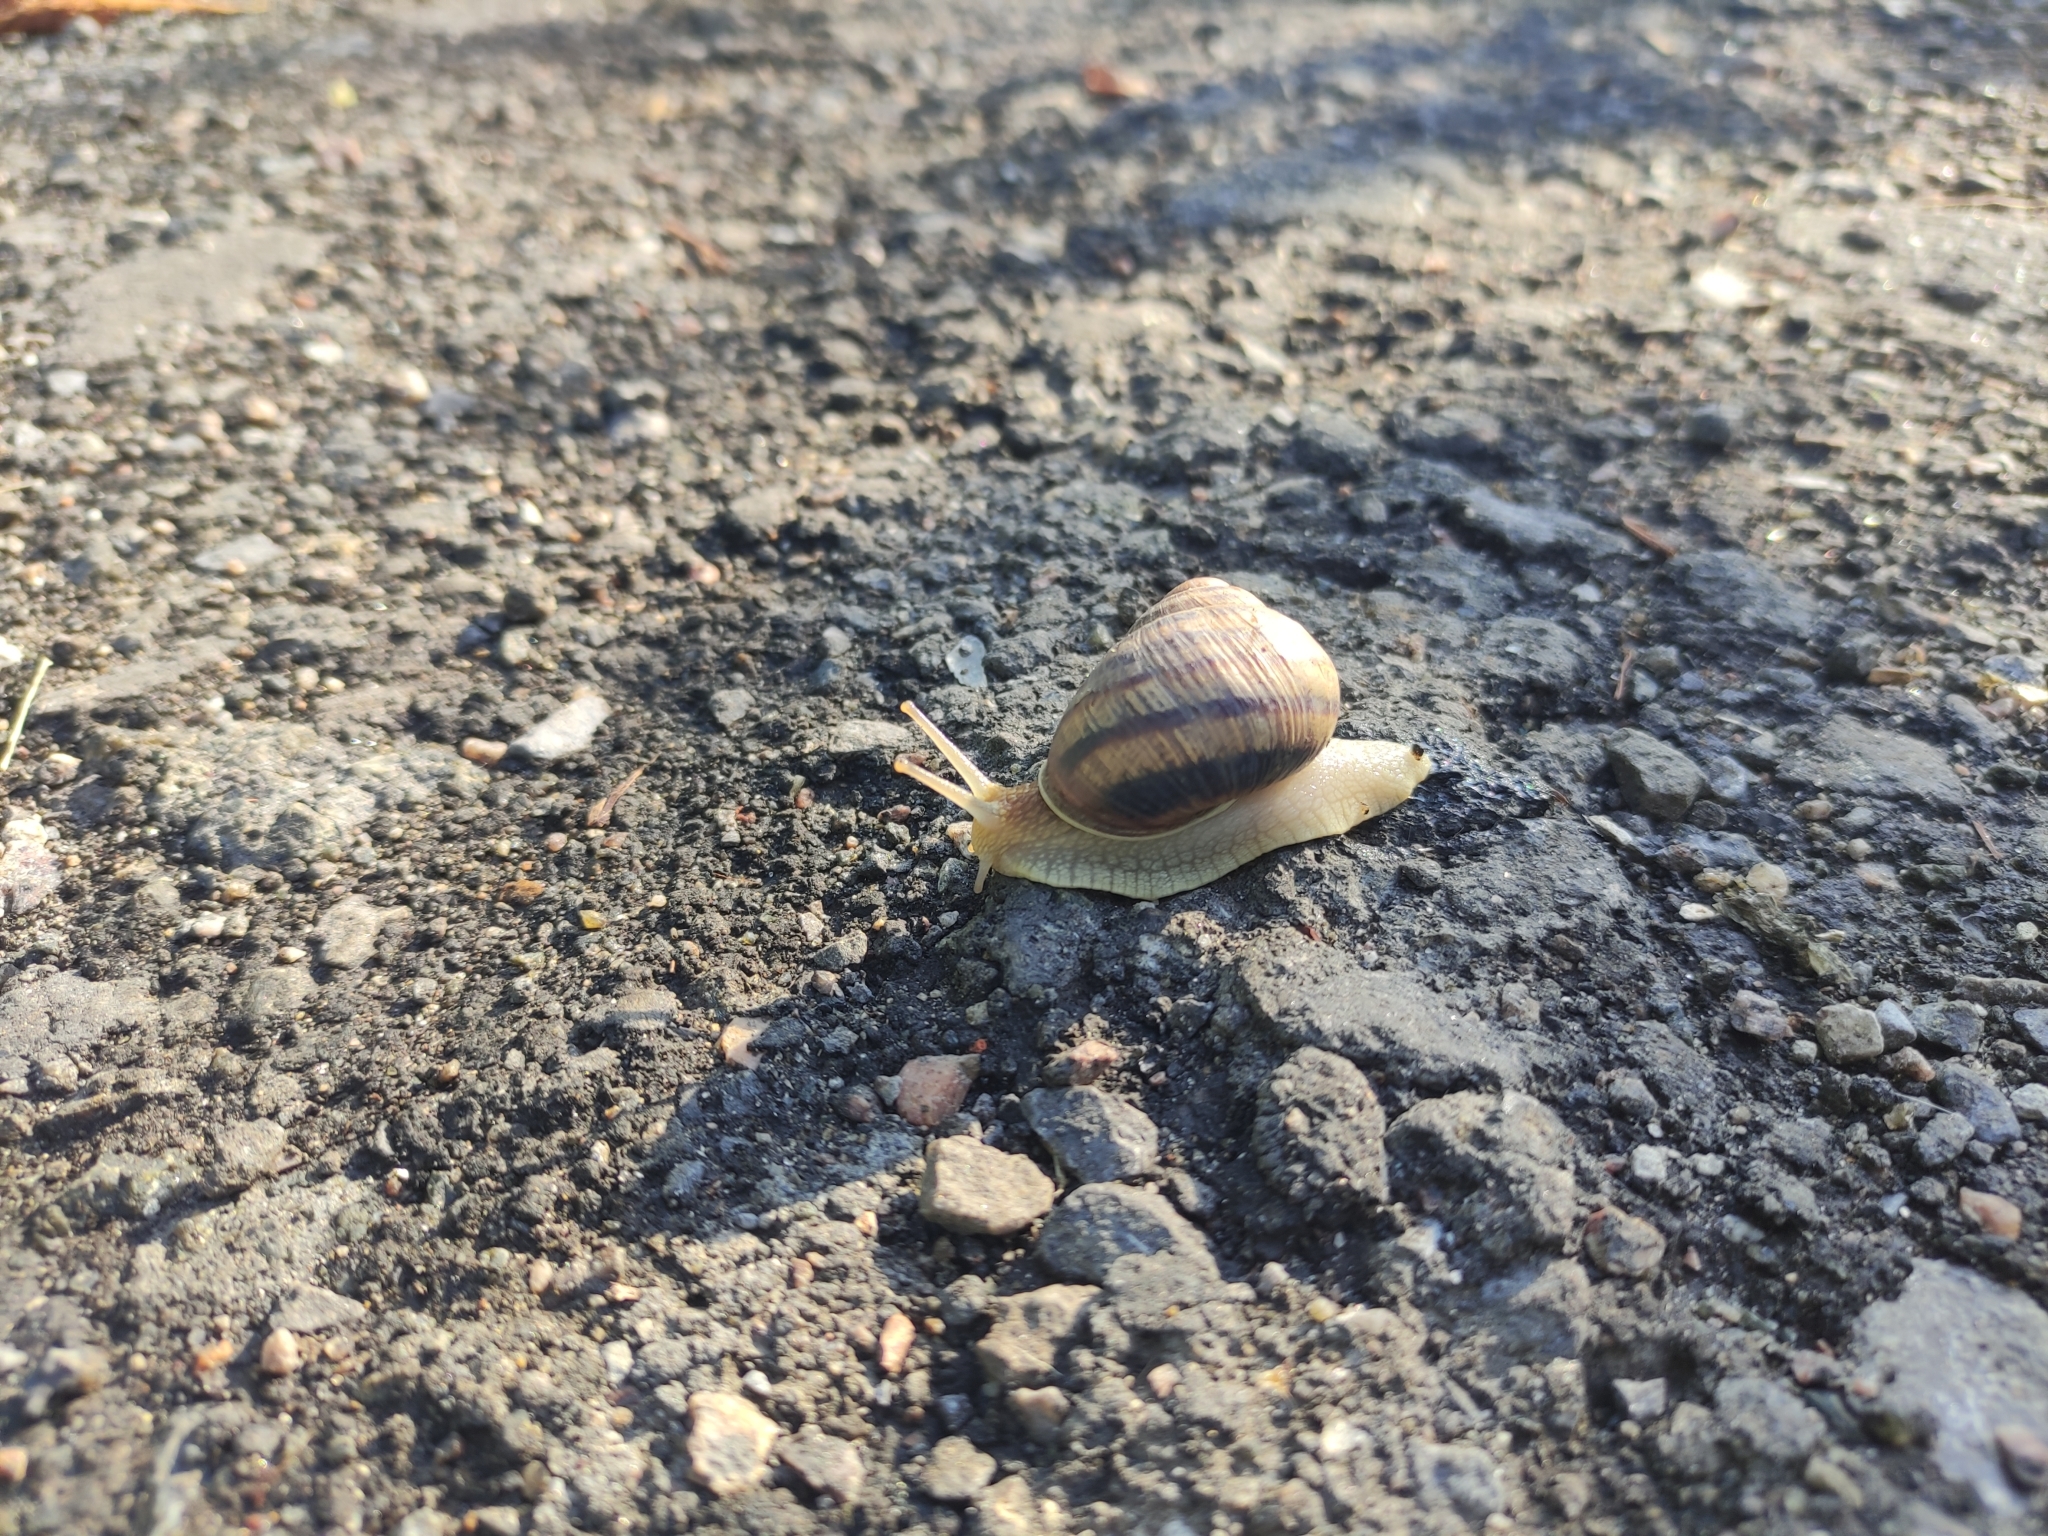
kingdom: Animalia
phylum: Mollusca
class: Gastropoda
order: Stylommatophora
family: Helicidae
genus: Helix
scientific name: Helix albescens
